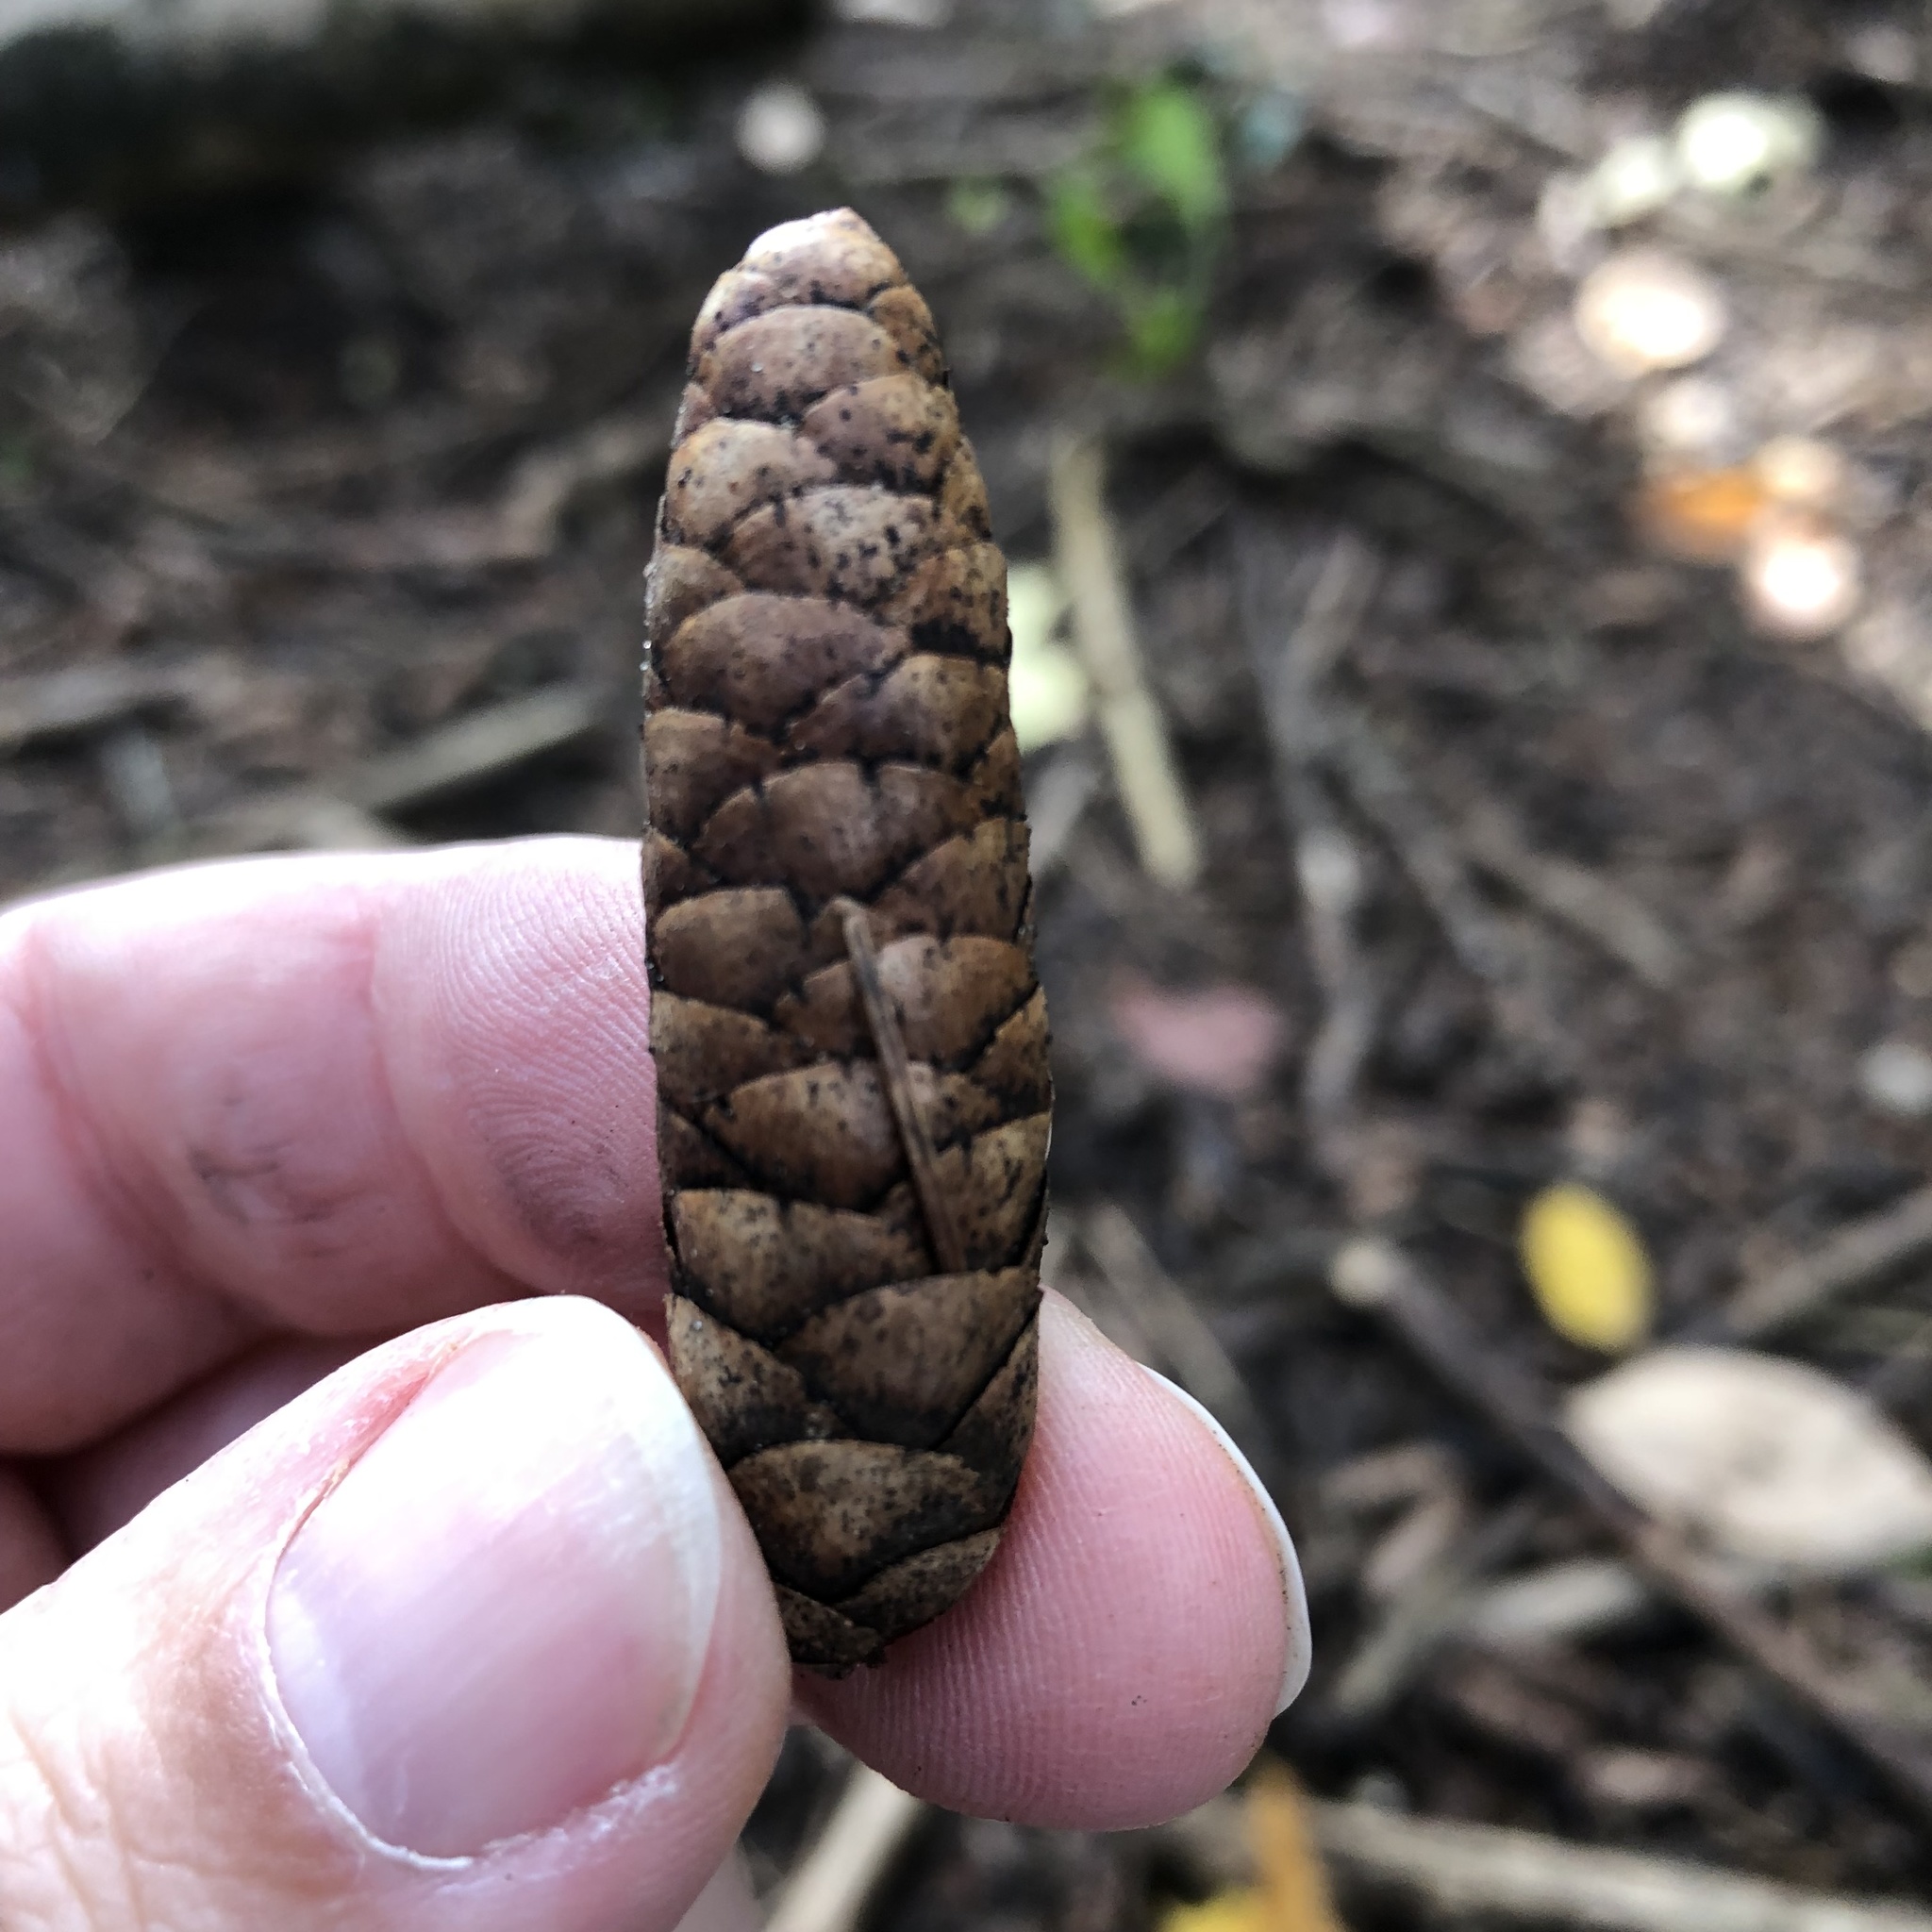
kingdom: Plantae
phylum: Tracheophyta
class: Pinopsida
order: Pinales
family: Pinaceae
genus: Picea
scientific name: Picea glauca
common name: White spruce
